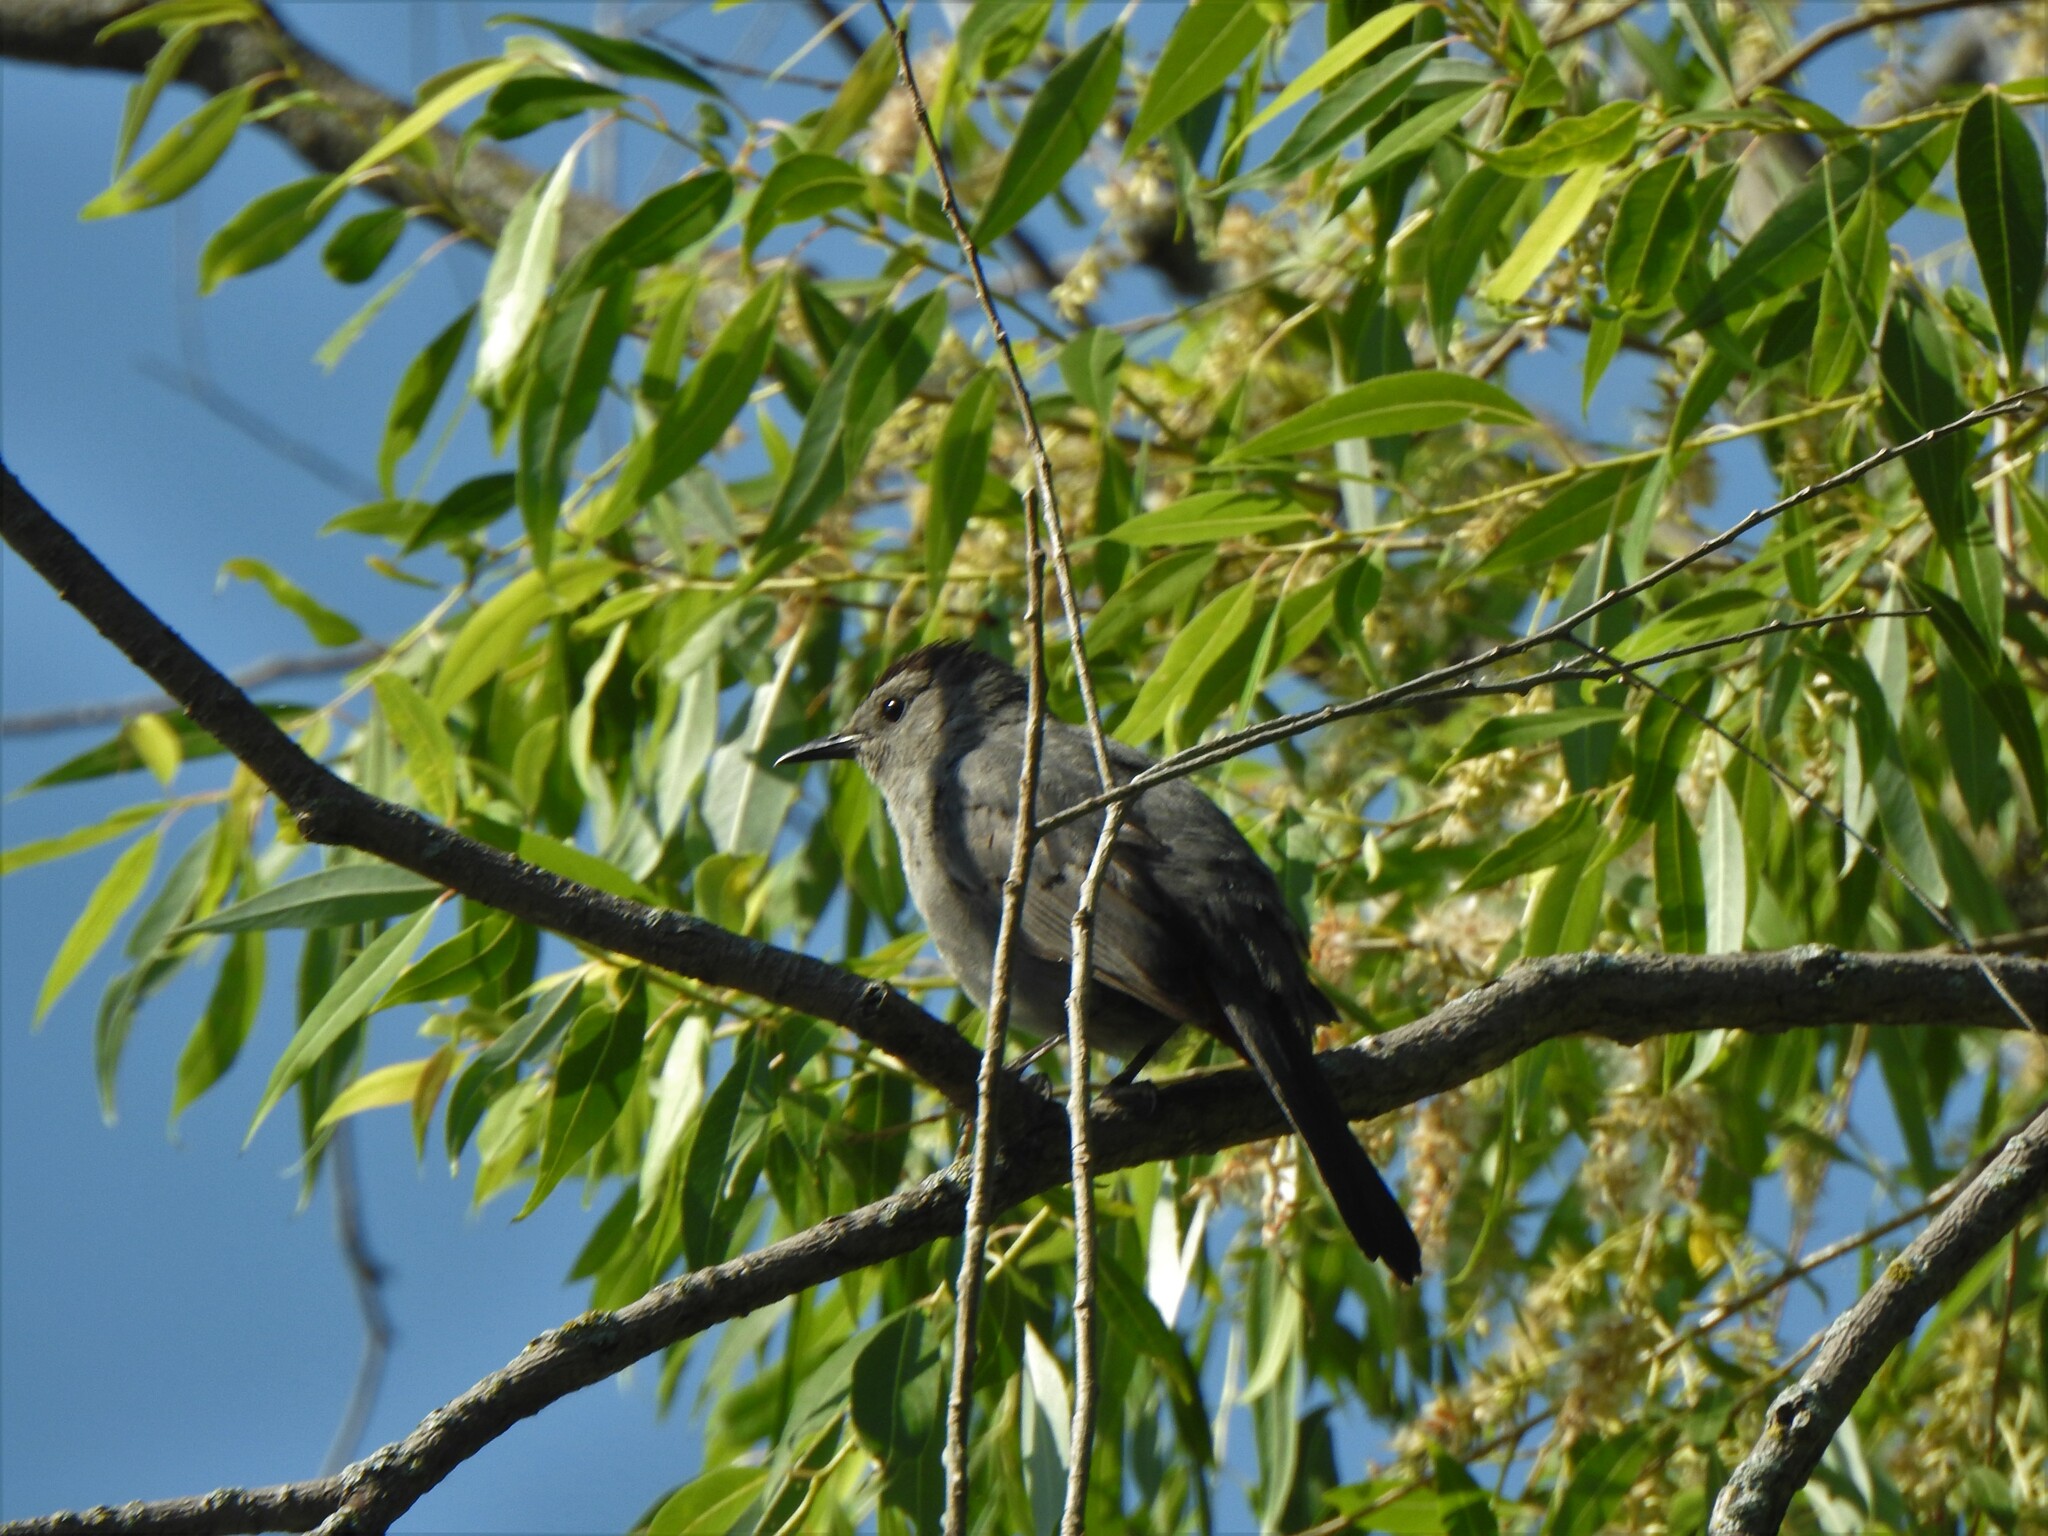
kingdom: Animalia
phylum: Chordata
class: Aves
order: Passeriformes
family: Mimidae
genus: Dumetella
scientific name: Dumetella carolinensis
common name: Gray catbird
